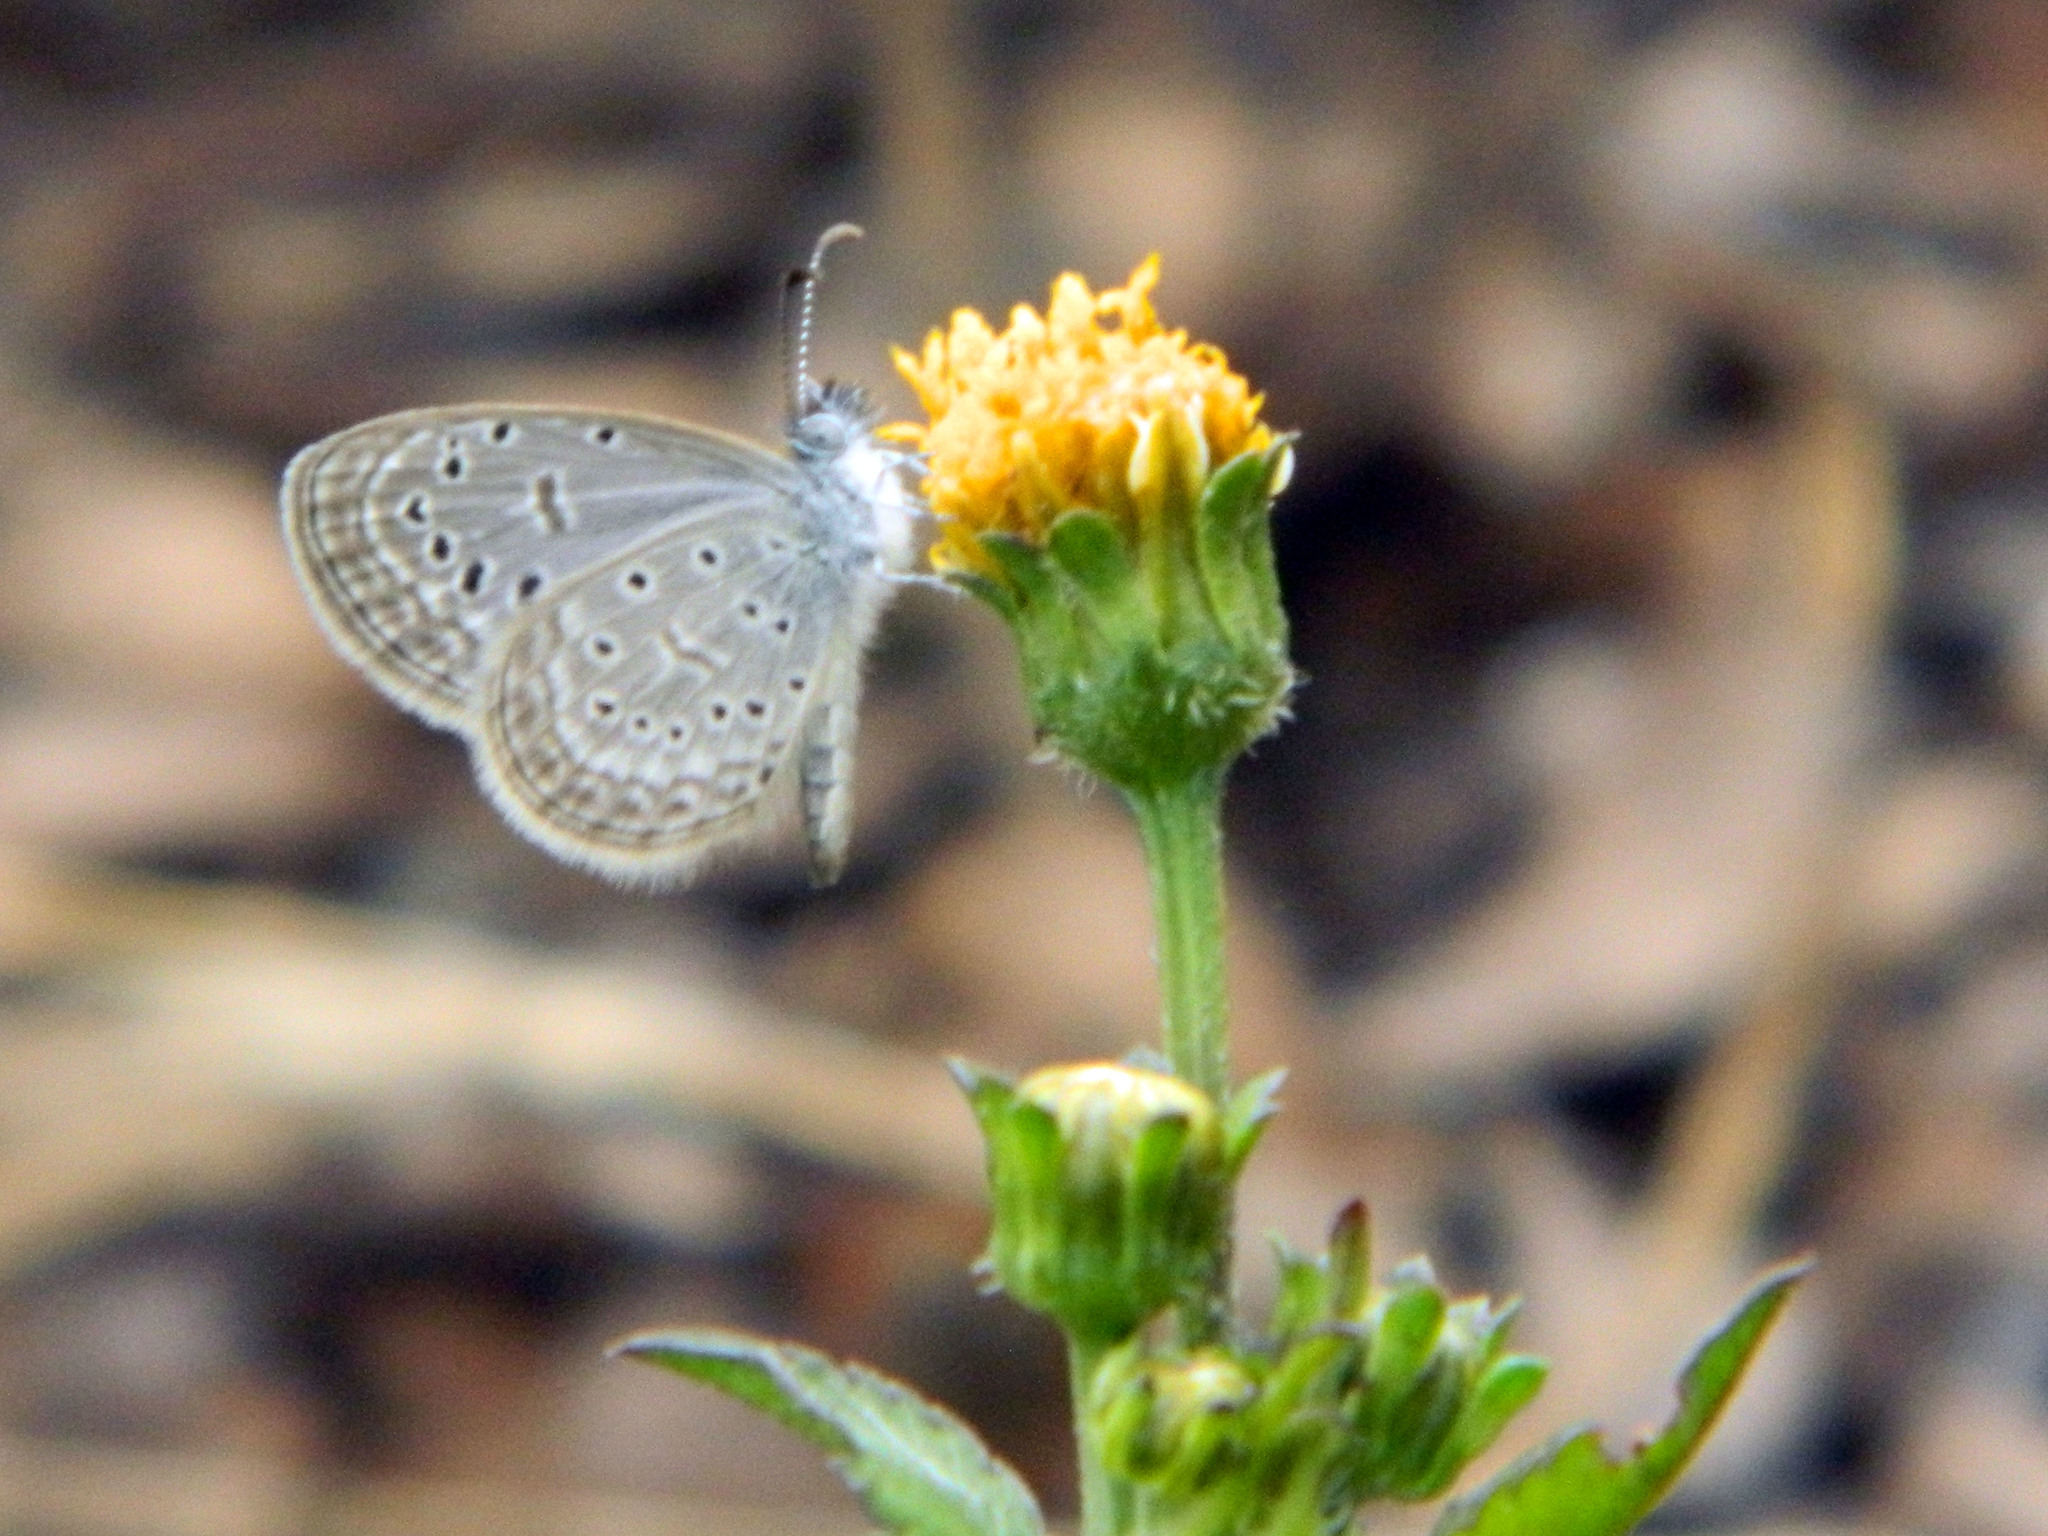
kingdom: Animalia
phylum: Arthropoda
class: Insecta
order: Lepidoptera
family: Lycaenidae
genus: Zizula
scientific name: Zizula hylax
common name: Gaika blue
